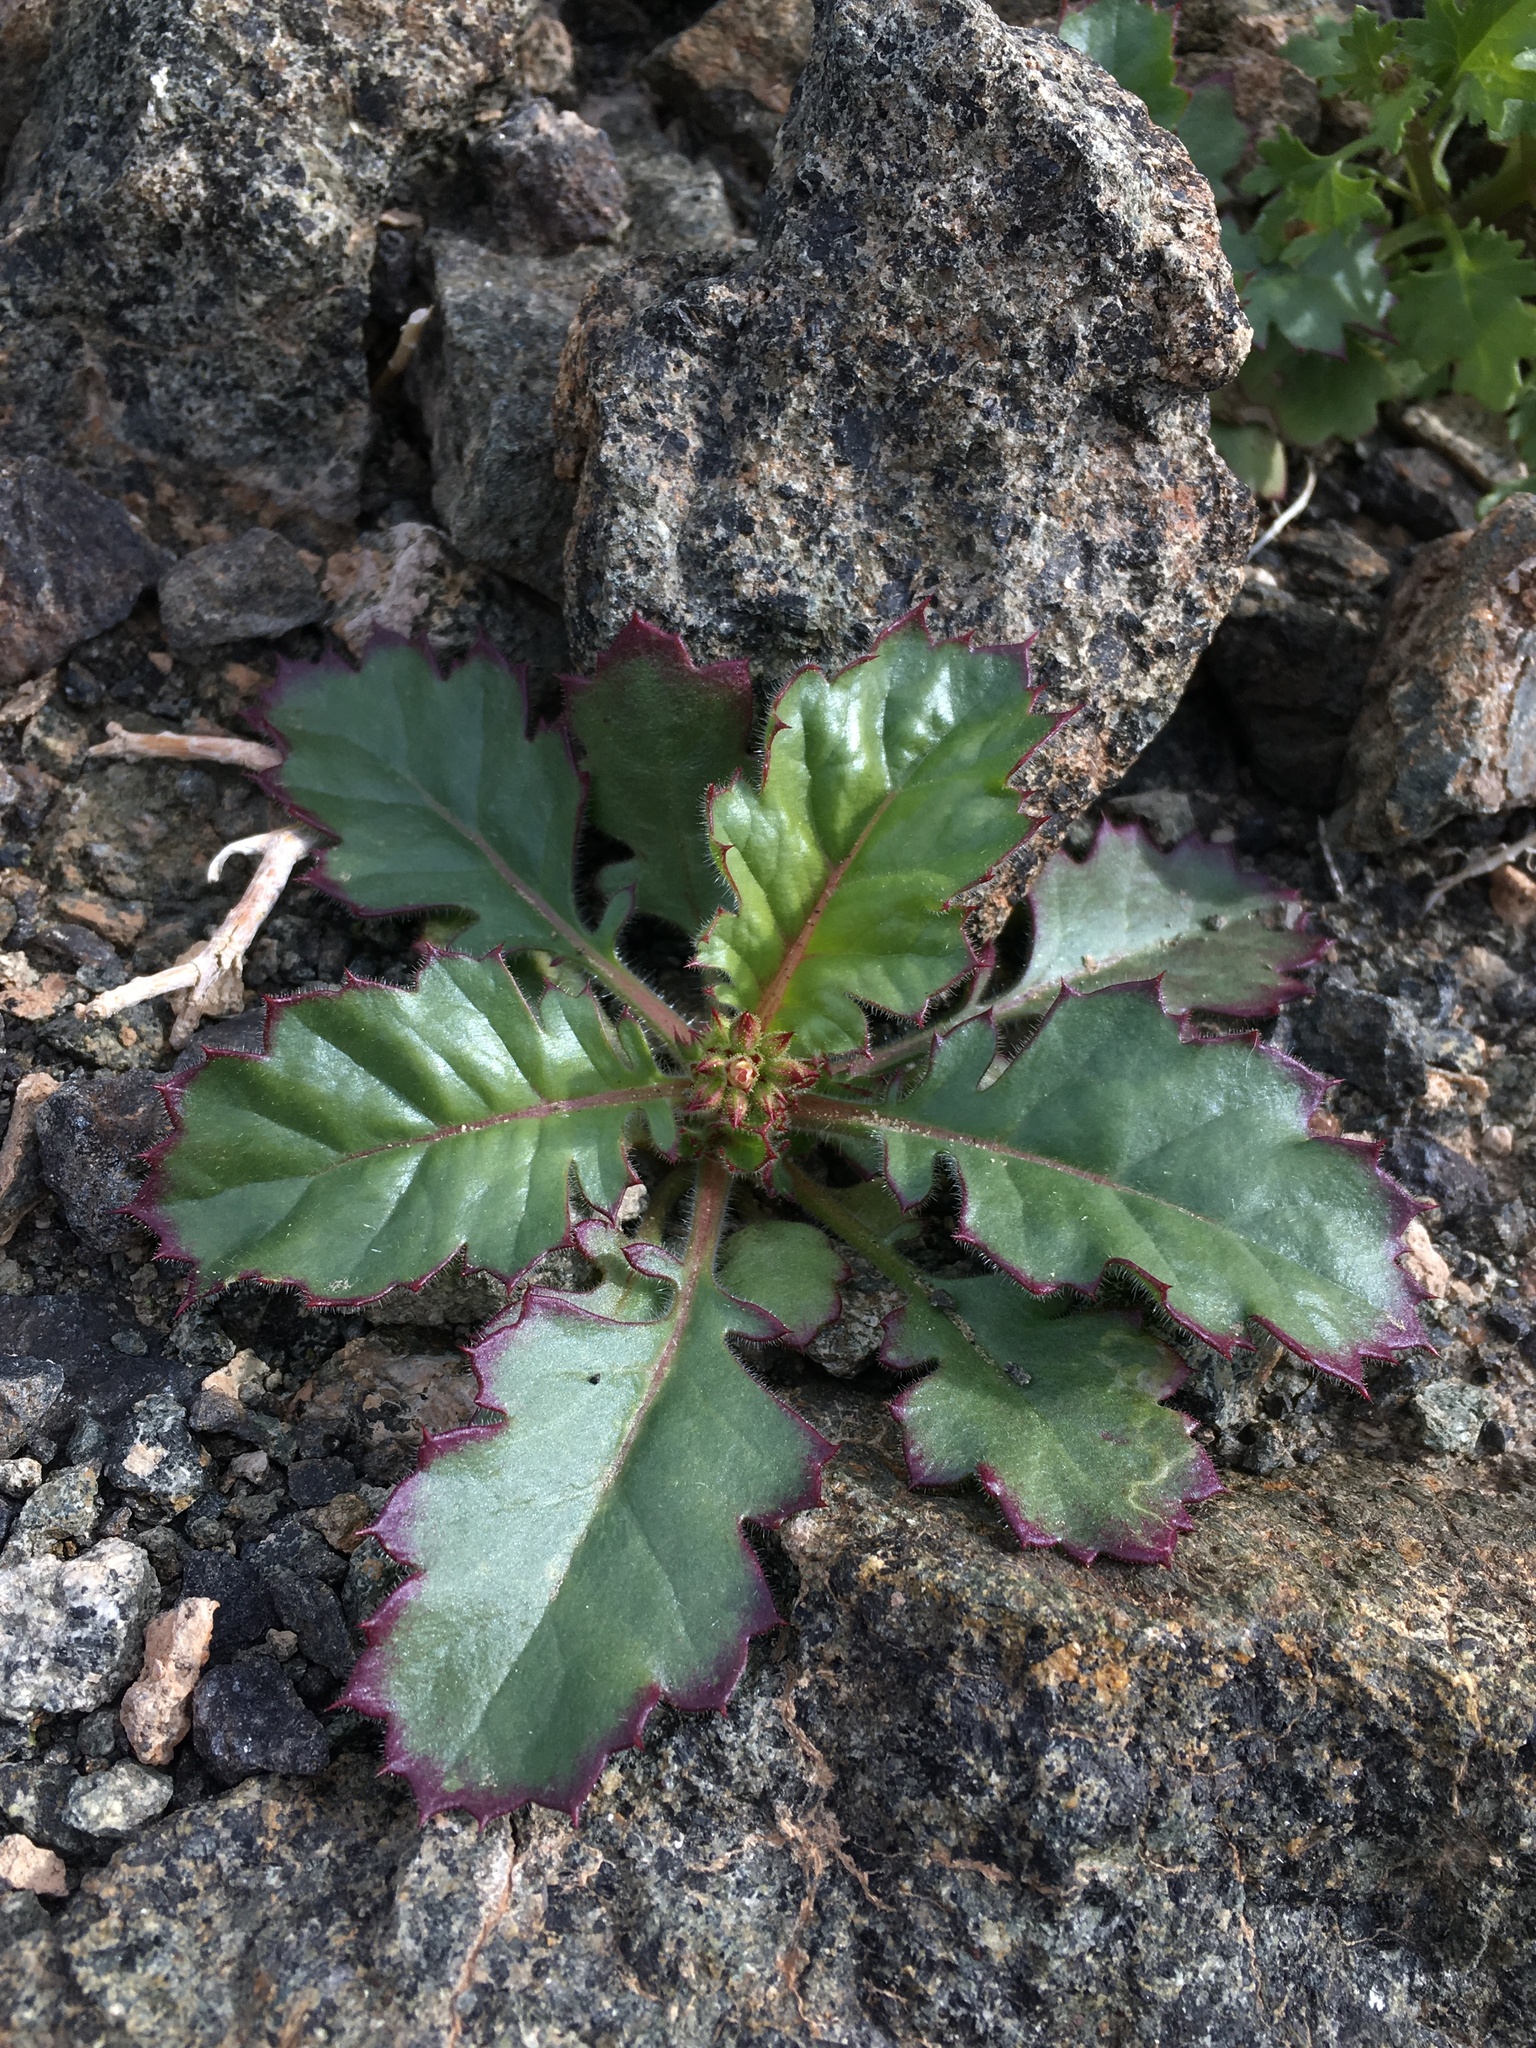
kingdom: Plantae
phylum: Tracheophyta
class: Magnoliopsida
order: Ericales
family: Polemoniaceae
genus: Aliciella
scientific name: Aliciella latifolia
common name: Broad-leaf gilia
